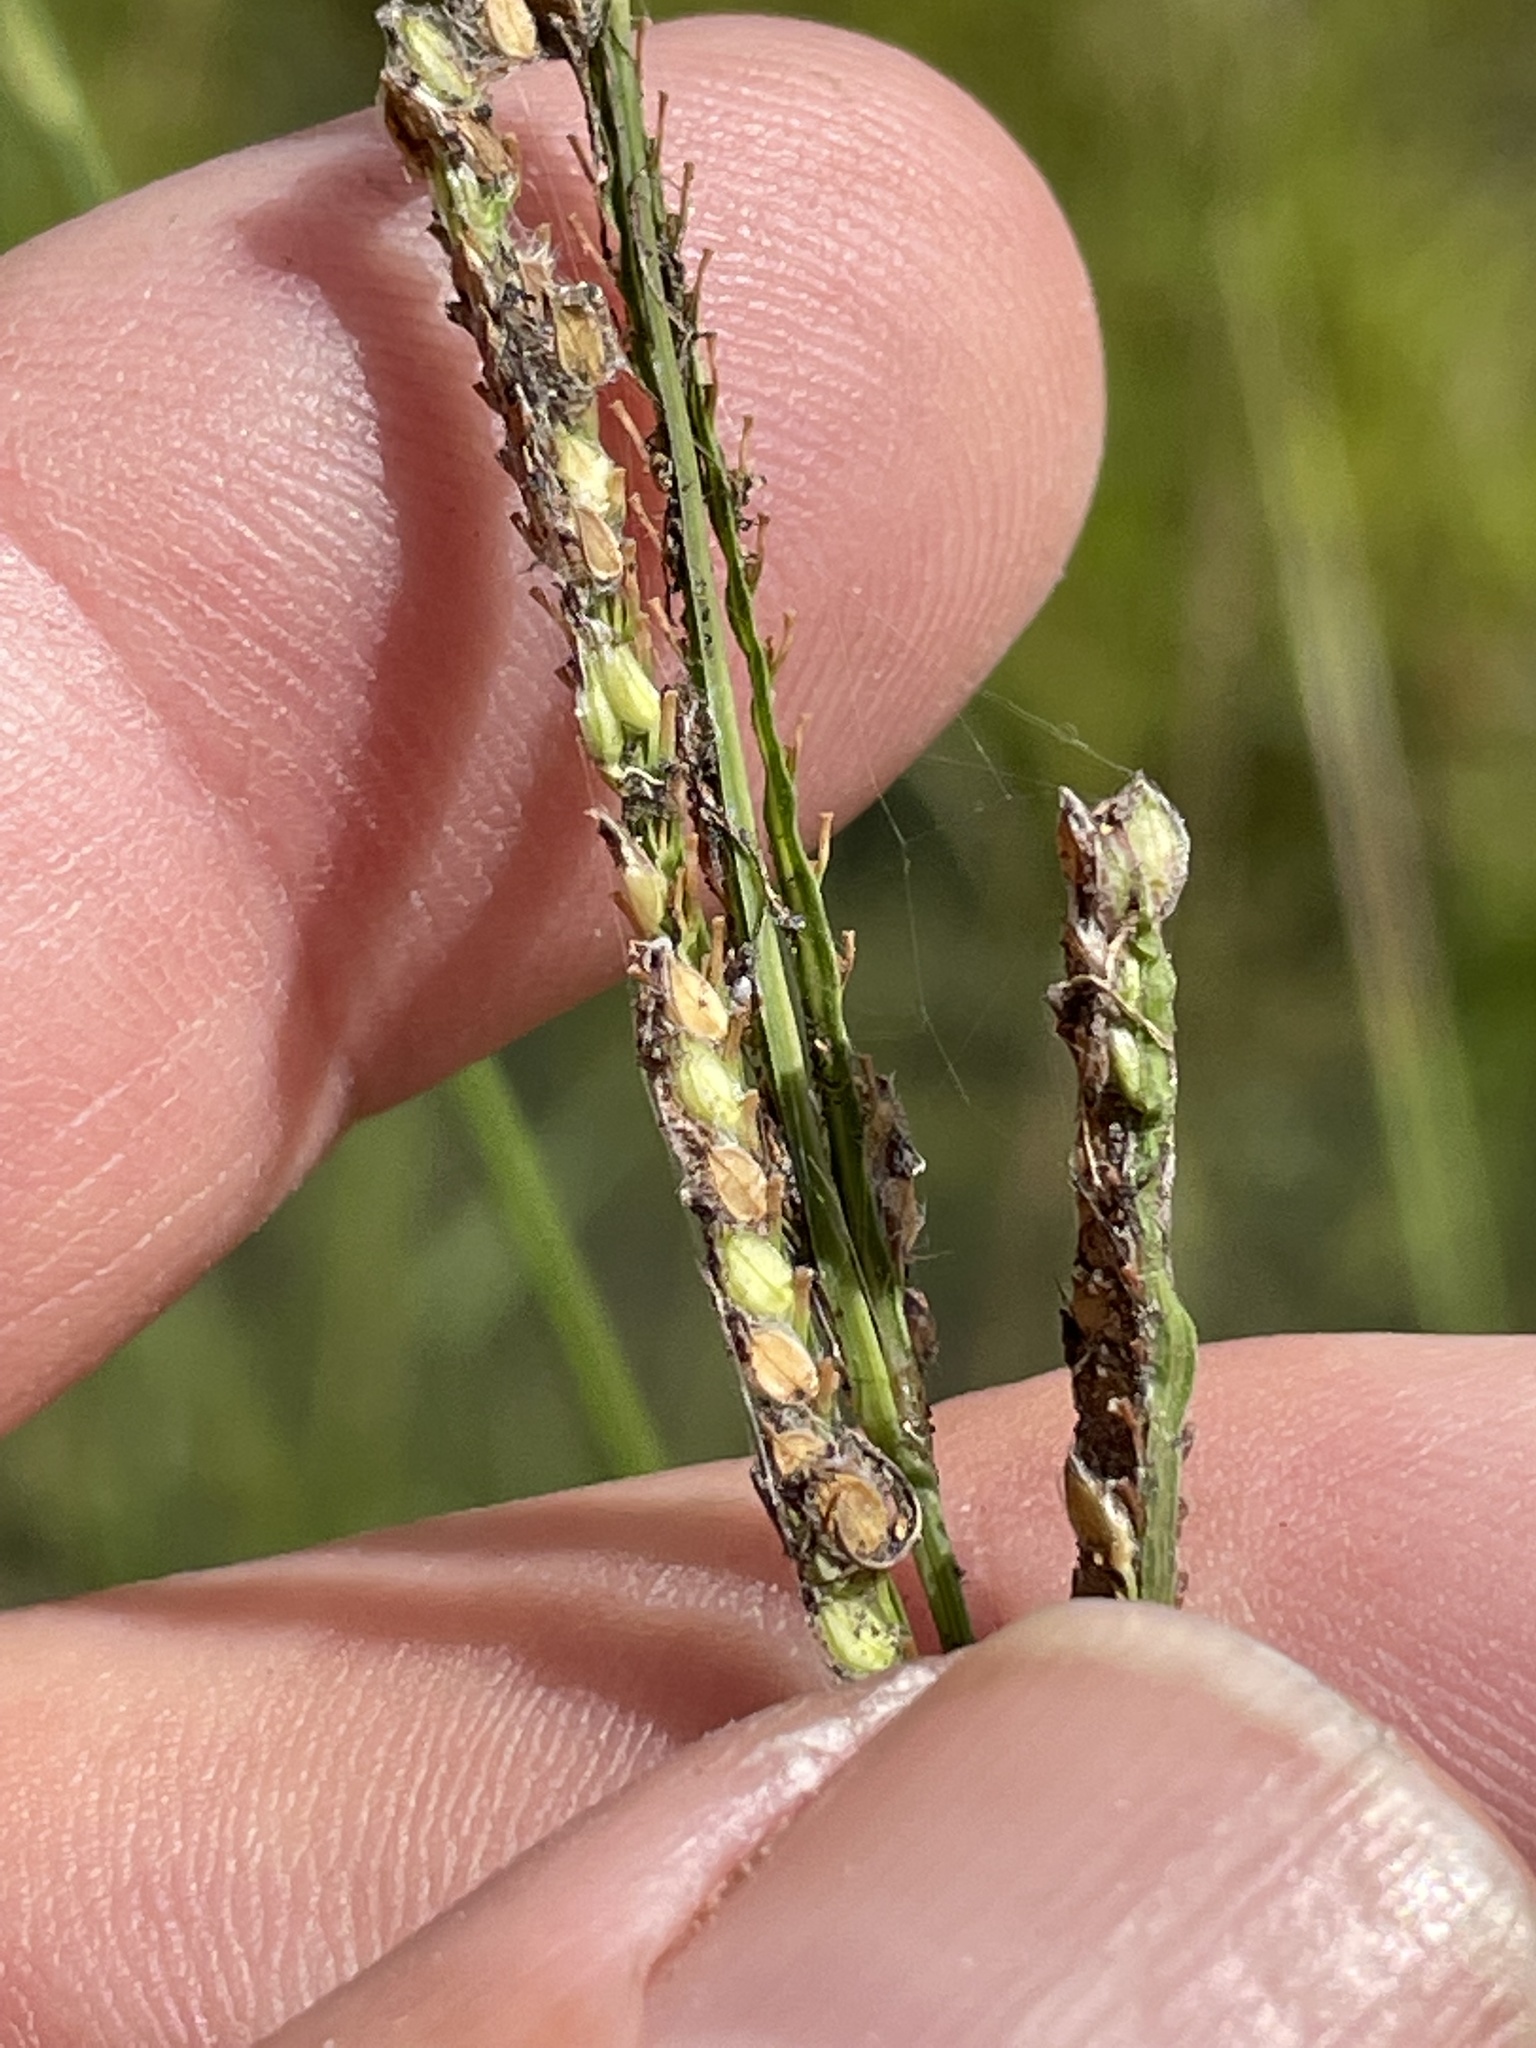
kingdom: Plantae
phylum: Tracheophyta
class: Liliopsida
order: Poales
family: Poaceae
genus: Paspalum
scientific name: Paspalum urvillei
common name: Vasey's grass
